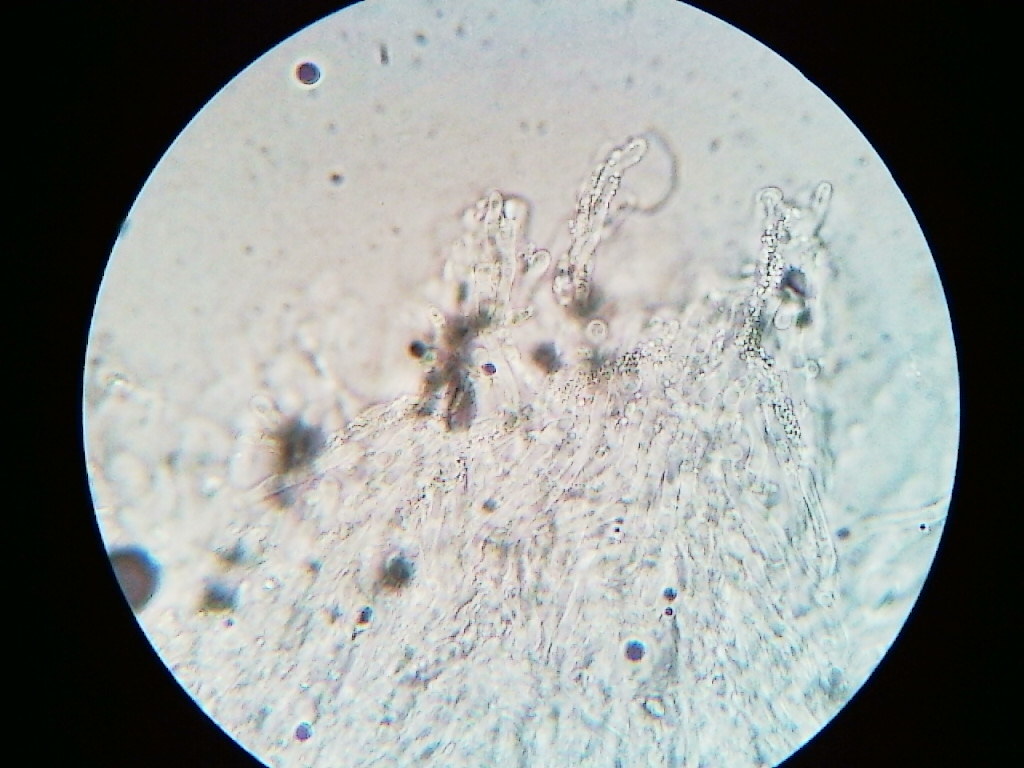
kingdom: Fungi
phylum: Basidiomycota
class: Agaricomycetes
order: Polyporales
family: Incrustoporiaceae
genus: Tyromyces
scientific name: Tyromyces chioneus
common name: White cheese polypore
